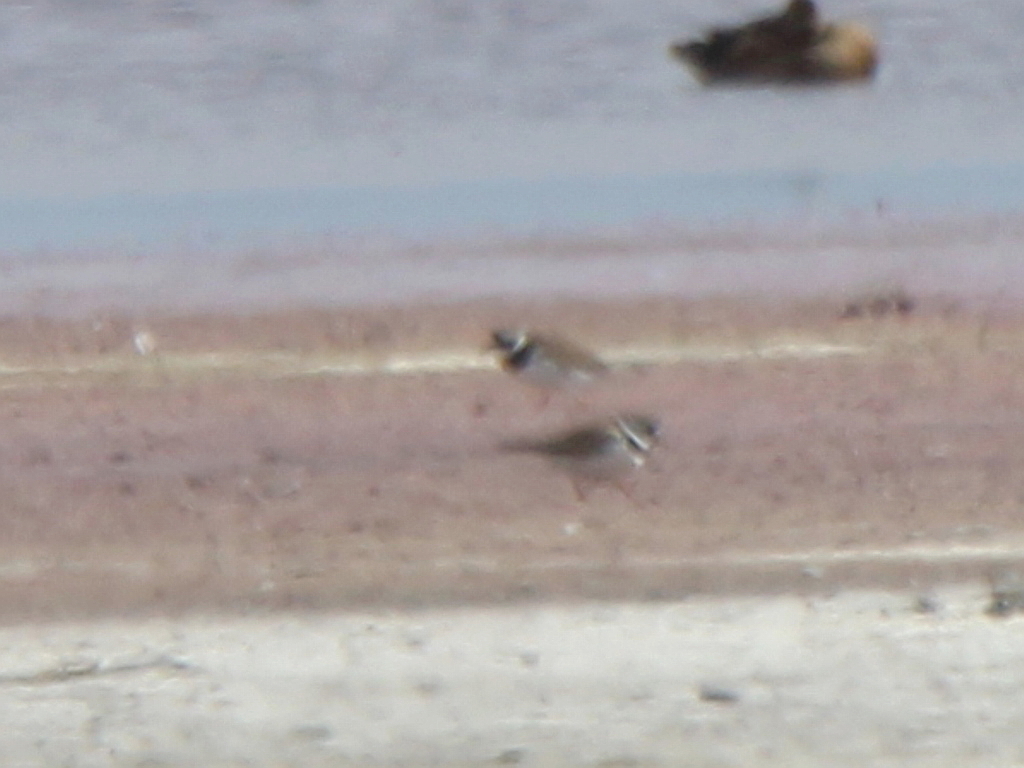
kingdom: Animalia
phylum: Chordata
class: Aves
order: Charadriiformes
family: Charadriidae
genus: Charadrius
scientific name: Charadrius hiaticula
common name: Common ringed plover
